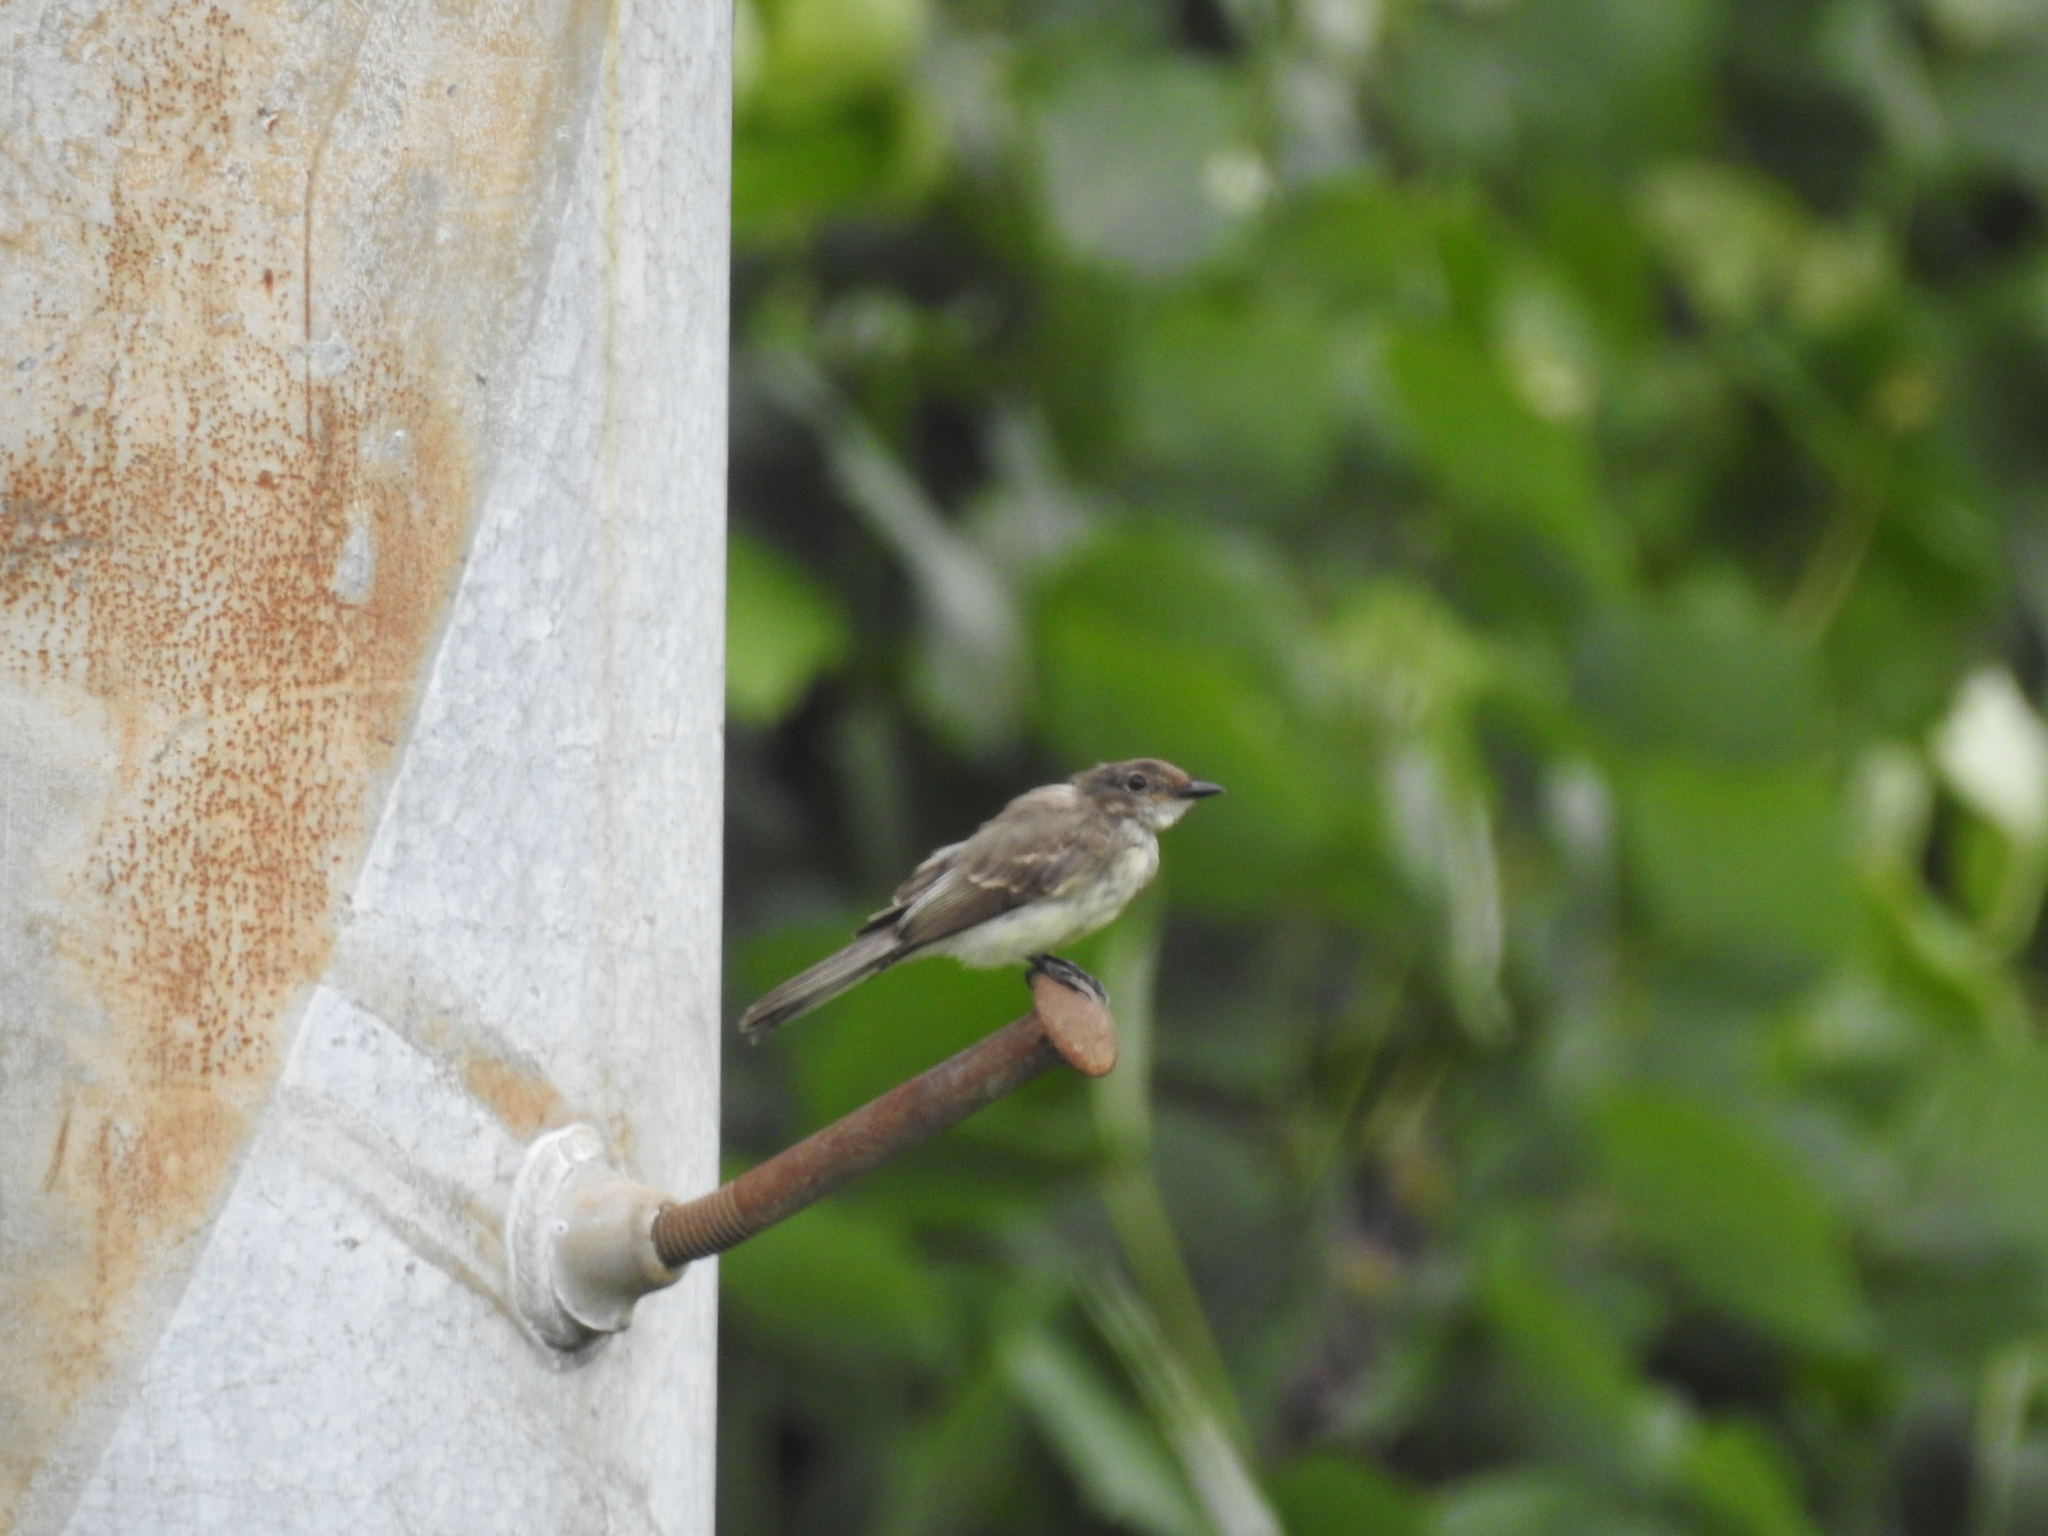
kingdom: Animalia
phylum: Chordata
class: Aves
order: Passeriformes
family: Tyrannidae
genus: Sayornis
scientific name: Sayornis phoebe
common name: Eastern phoebe
